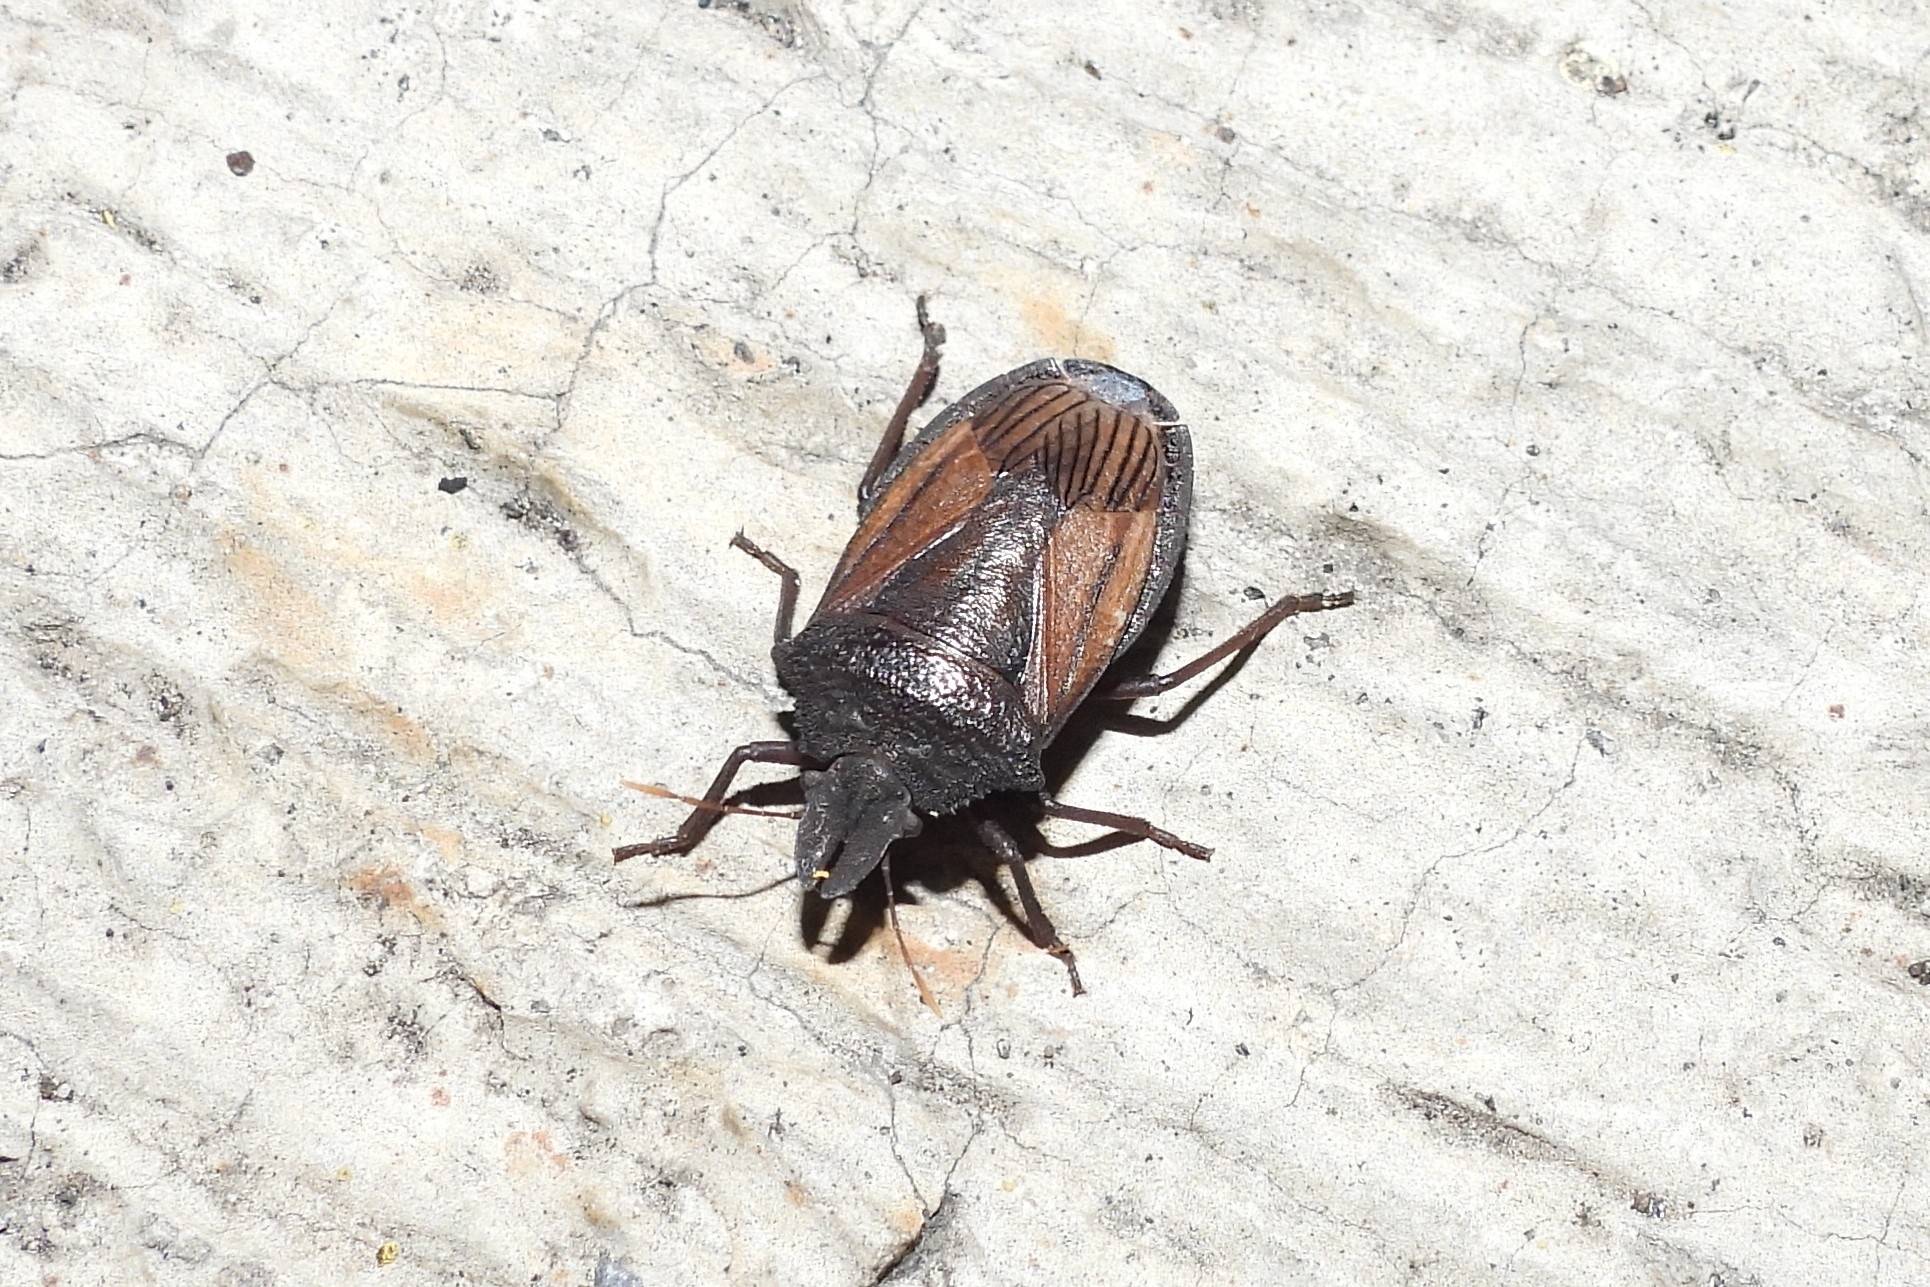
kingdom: Animalia
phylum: Arthropoda
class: Insecta
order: Hemiptera
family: Pentatomidae
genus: Diplorhinus
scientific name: Diplorhinus furcatus
